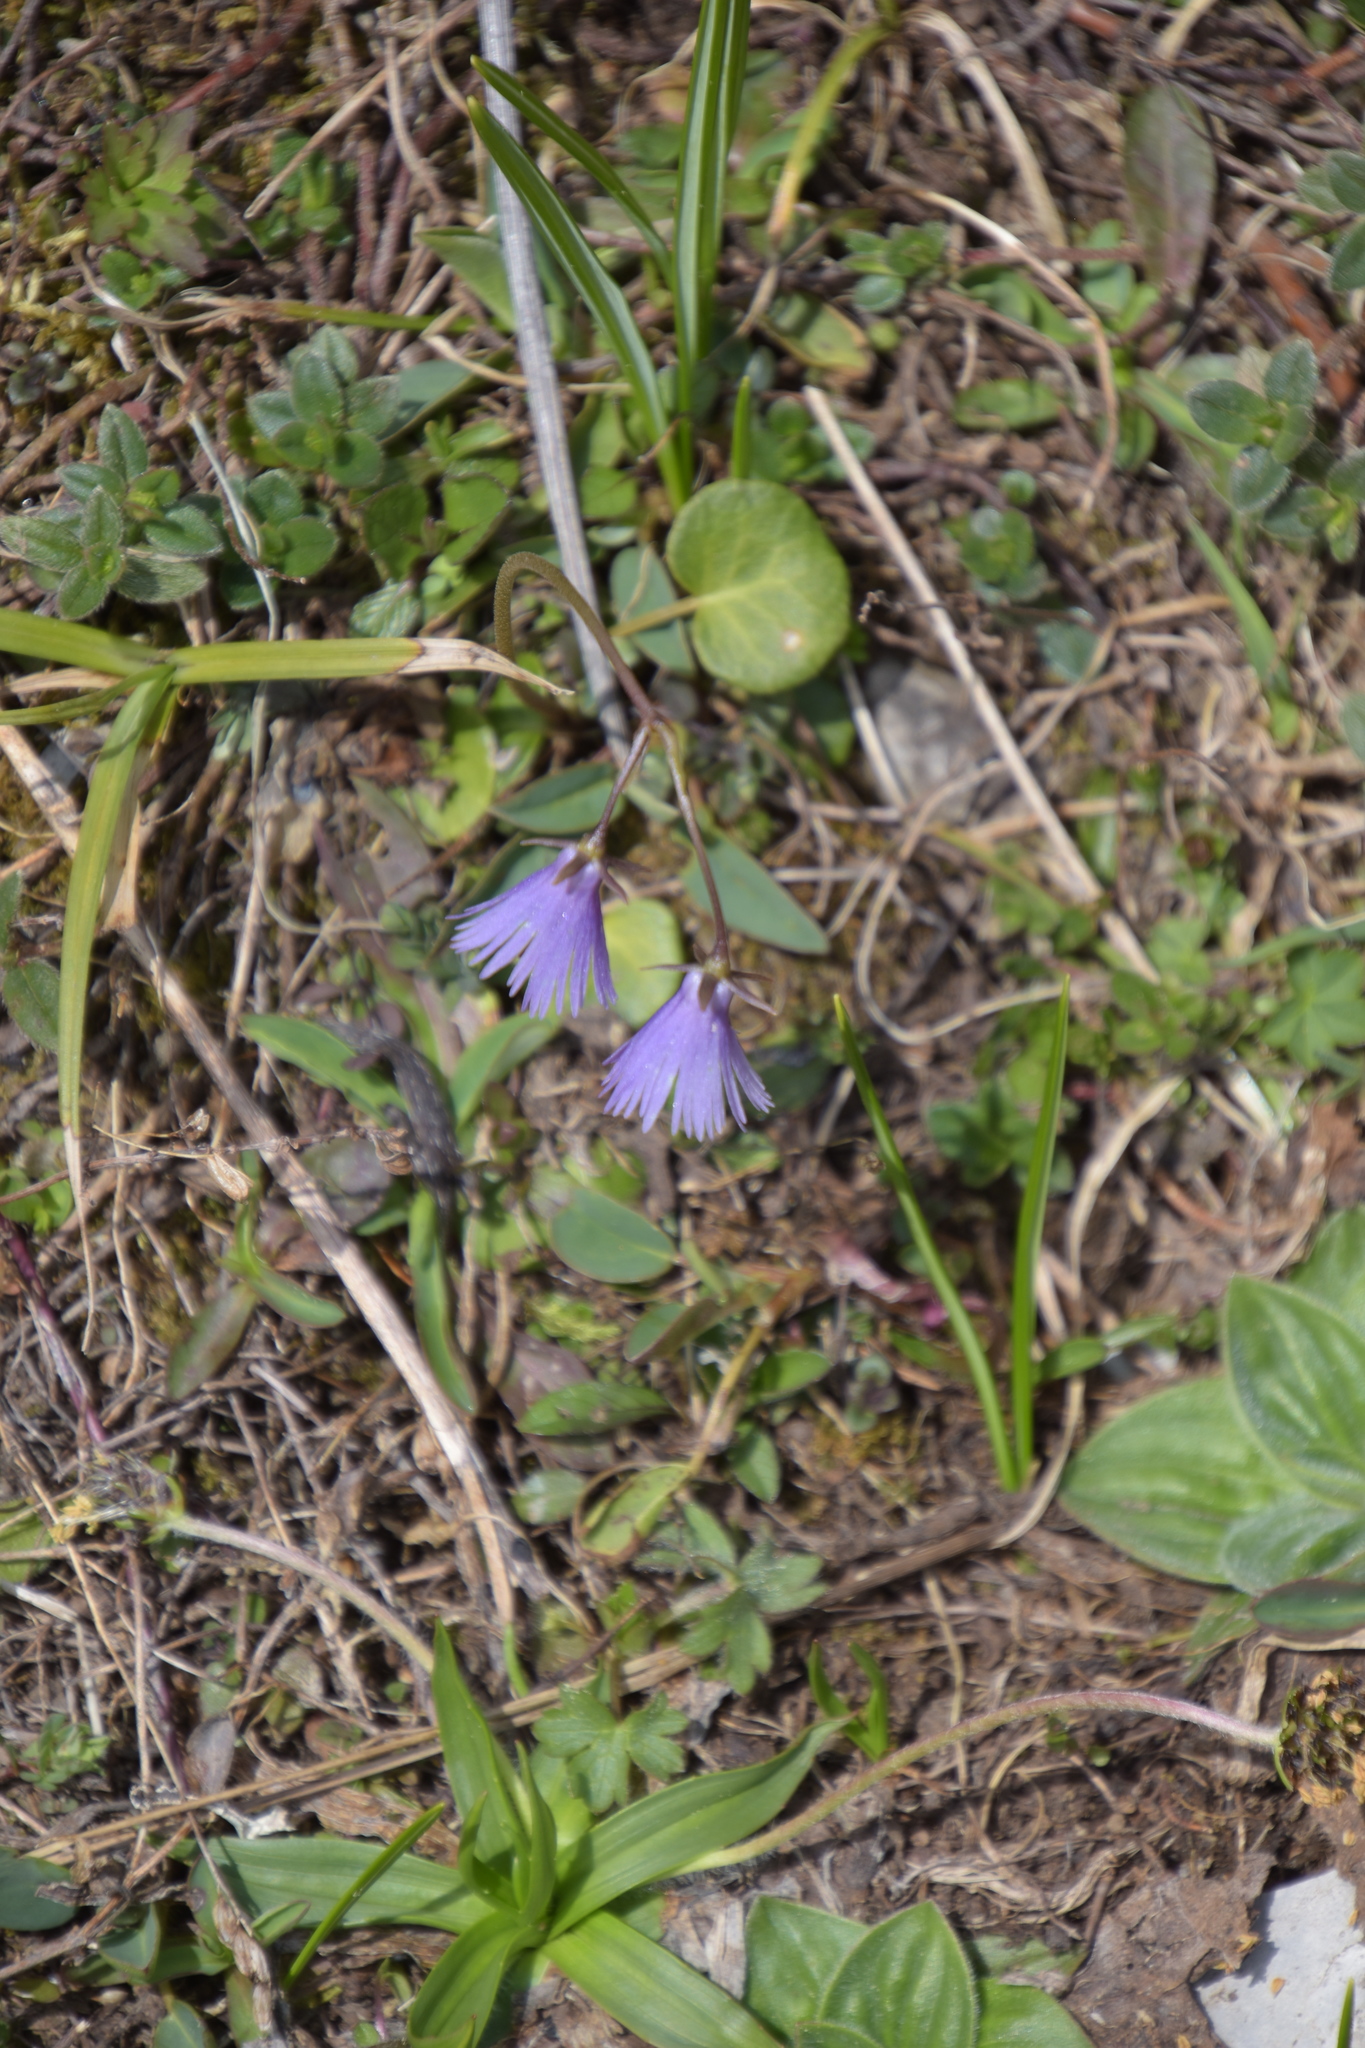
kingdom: Plantae
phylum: Tracheophyta
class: Magnoliopsida
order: Ericales
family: Primulaceae
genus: Soldanella
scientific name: Soldanella alpina
